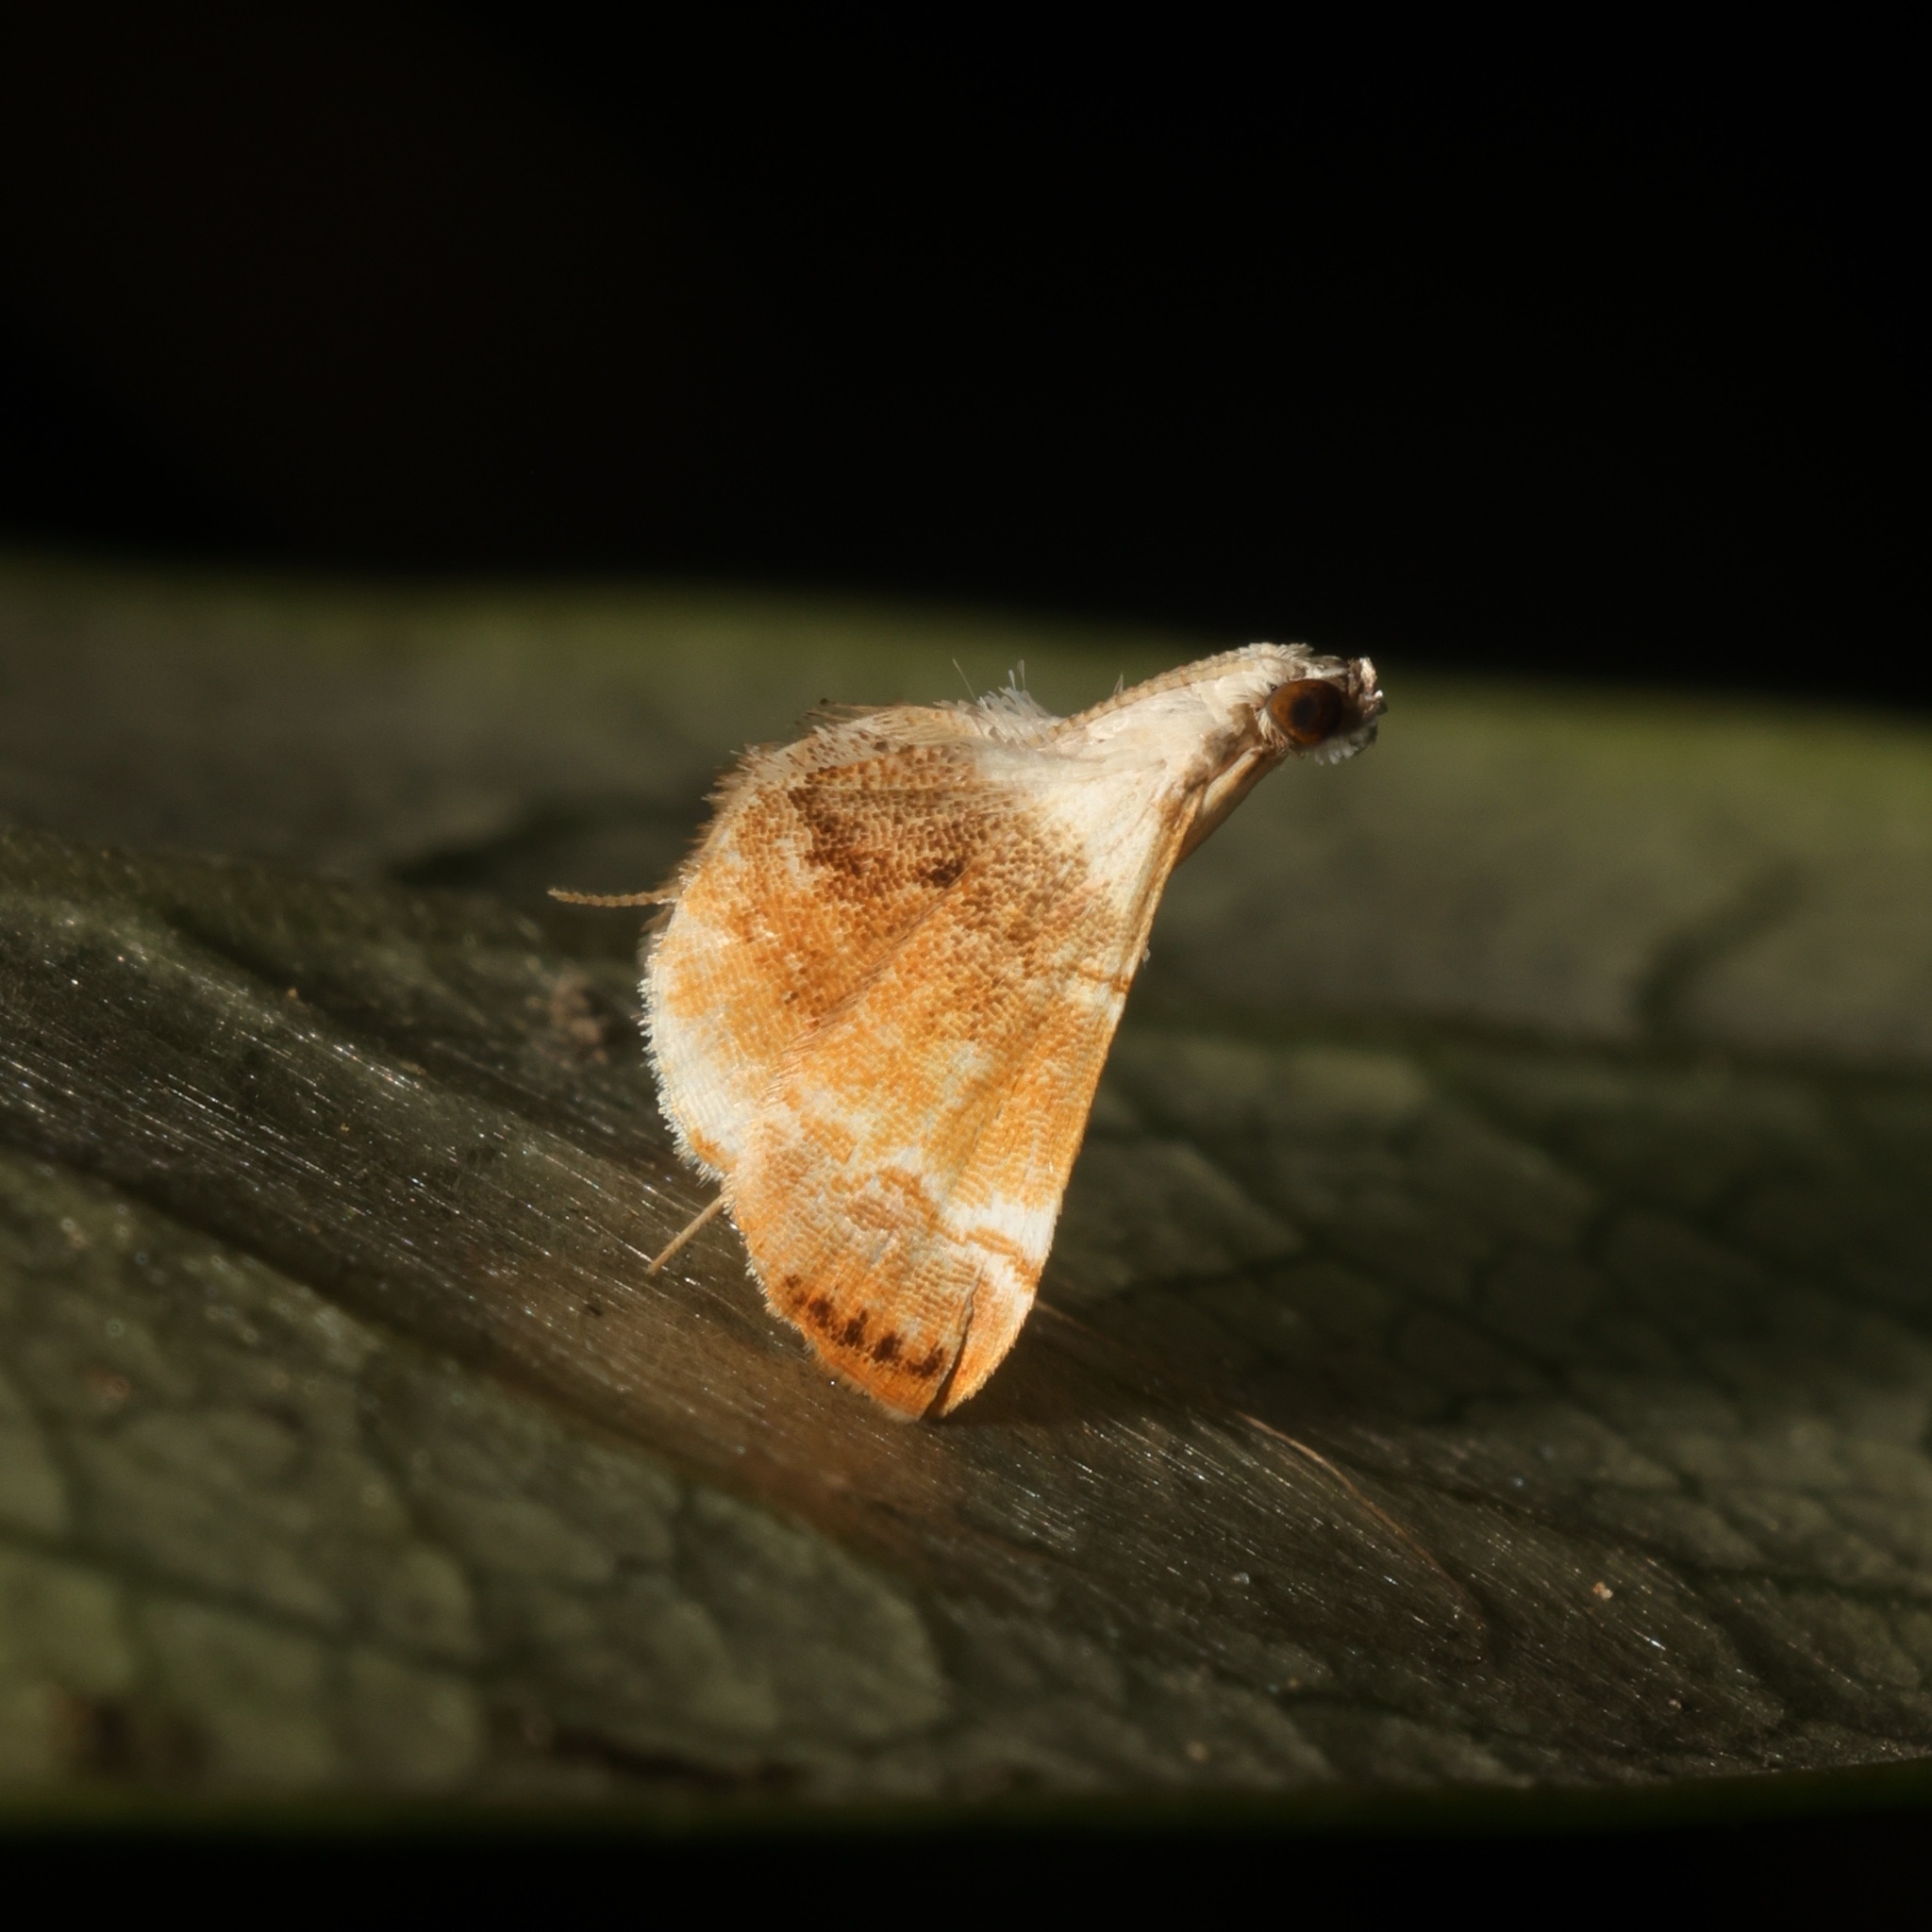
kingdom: Animalia
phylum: Arthropoda
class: Insecta
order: Lepidoptera
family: Crambidae
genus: Trichophysetis
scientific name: Trichophysetis rufoterminalis
